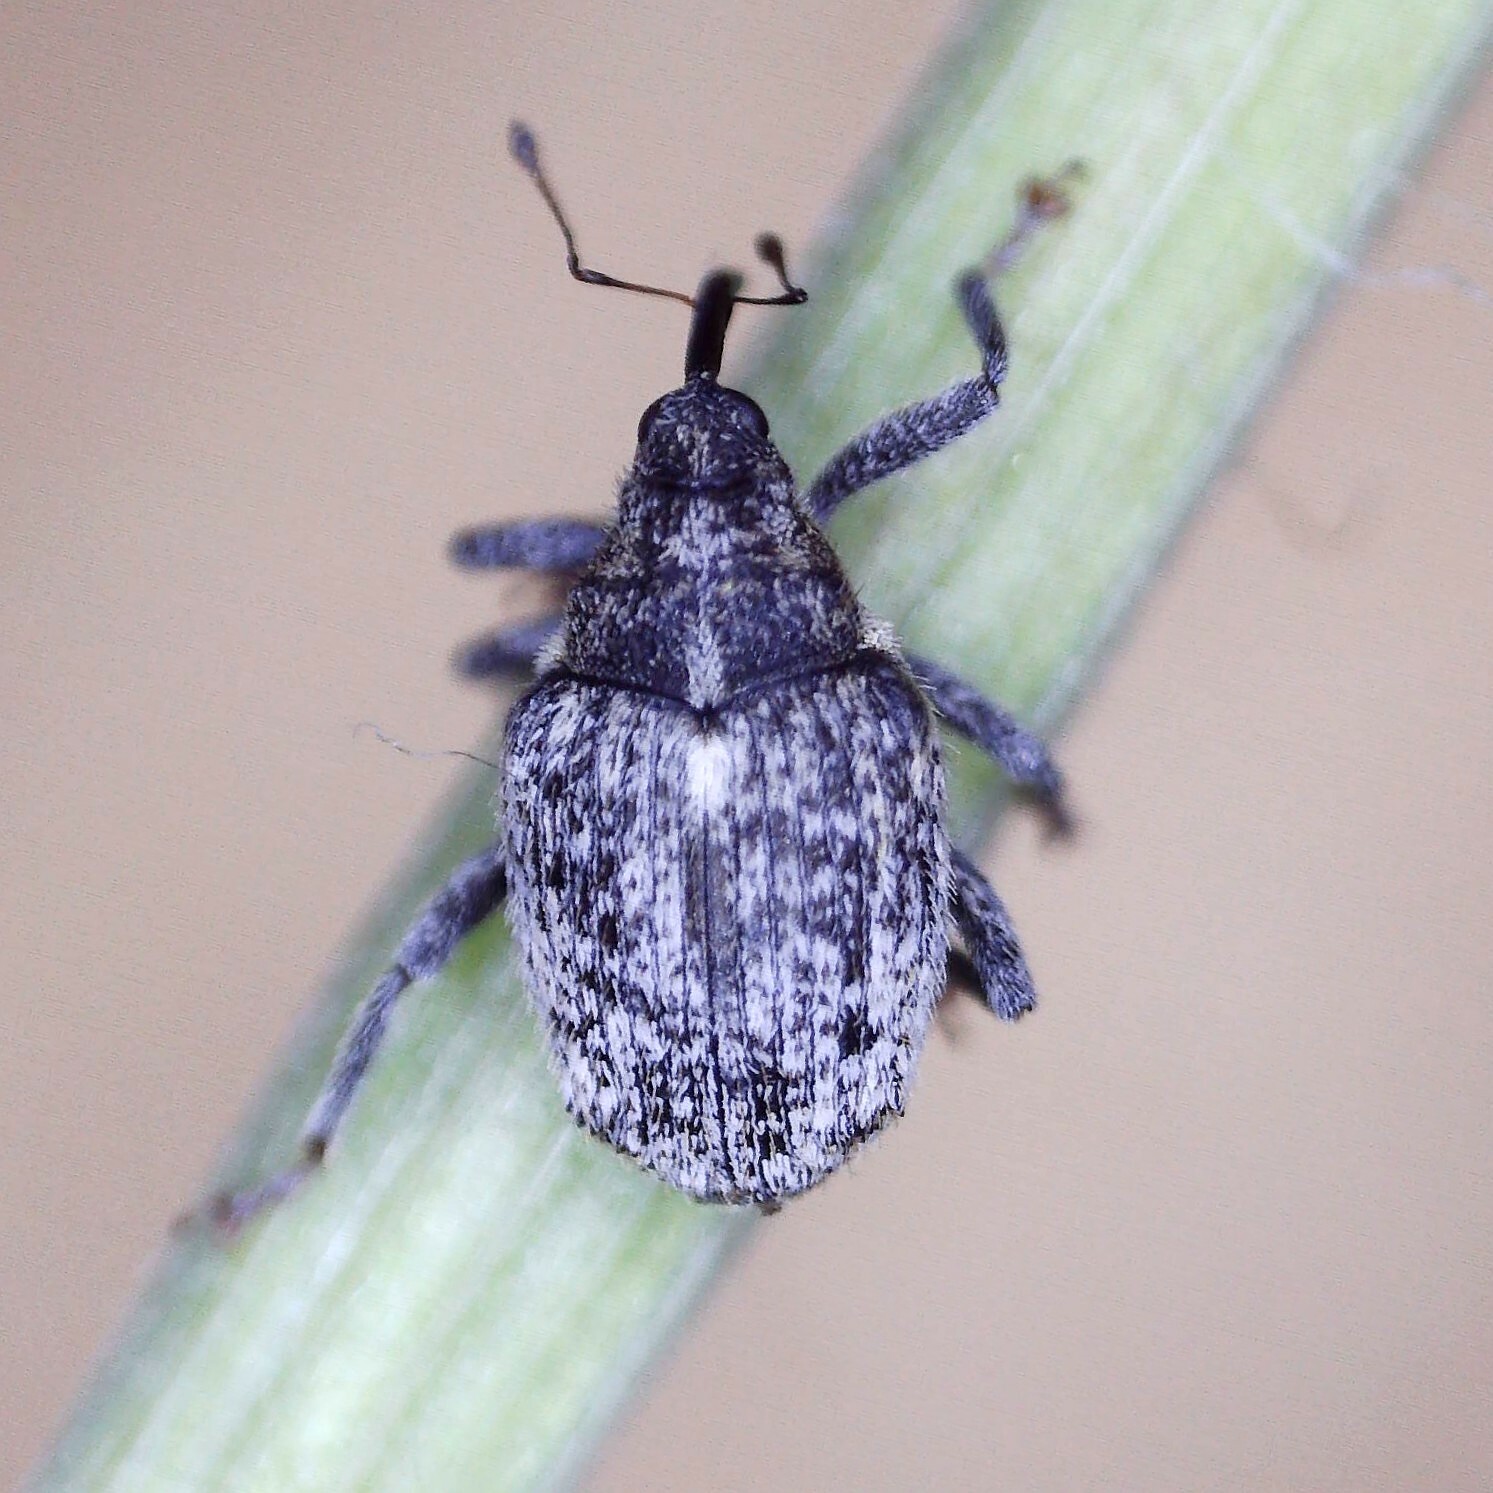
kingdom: Animalia
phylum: Arthropoda
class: Insecta
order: Coleoptera
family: Curculionidae
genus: Ceutorhynchus
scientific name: Ceutorhynchus pallidactylus
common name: Cabbage stem weavil
